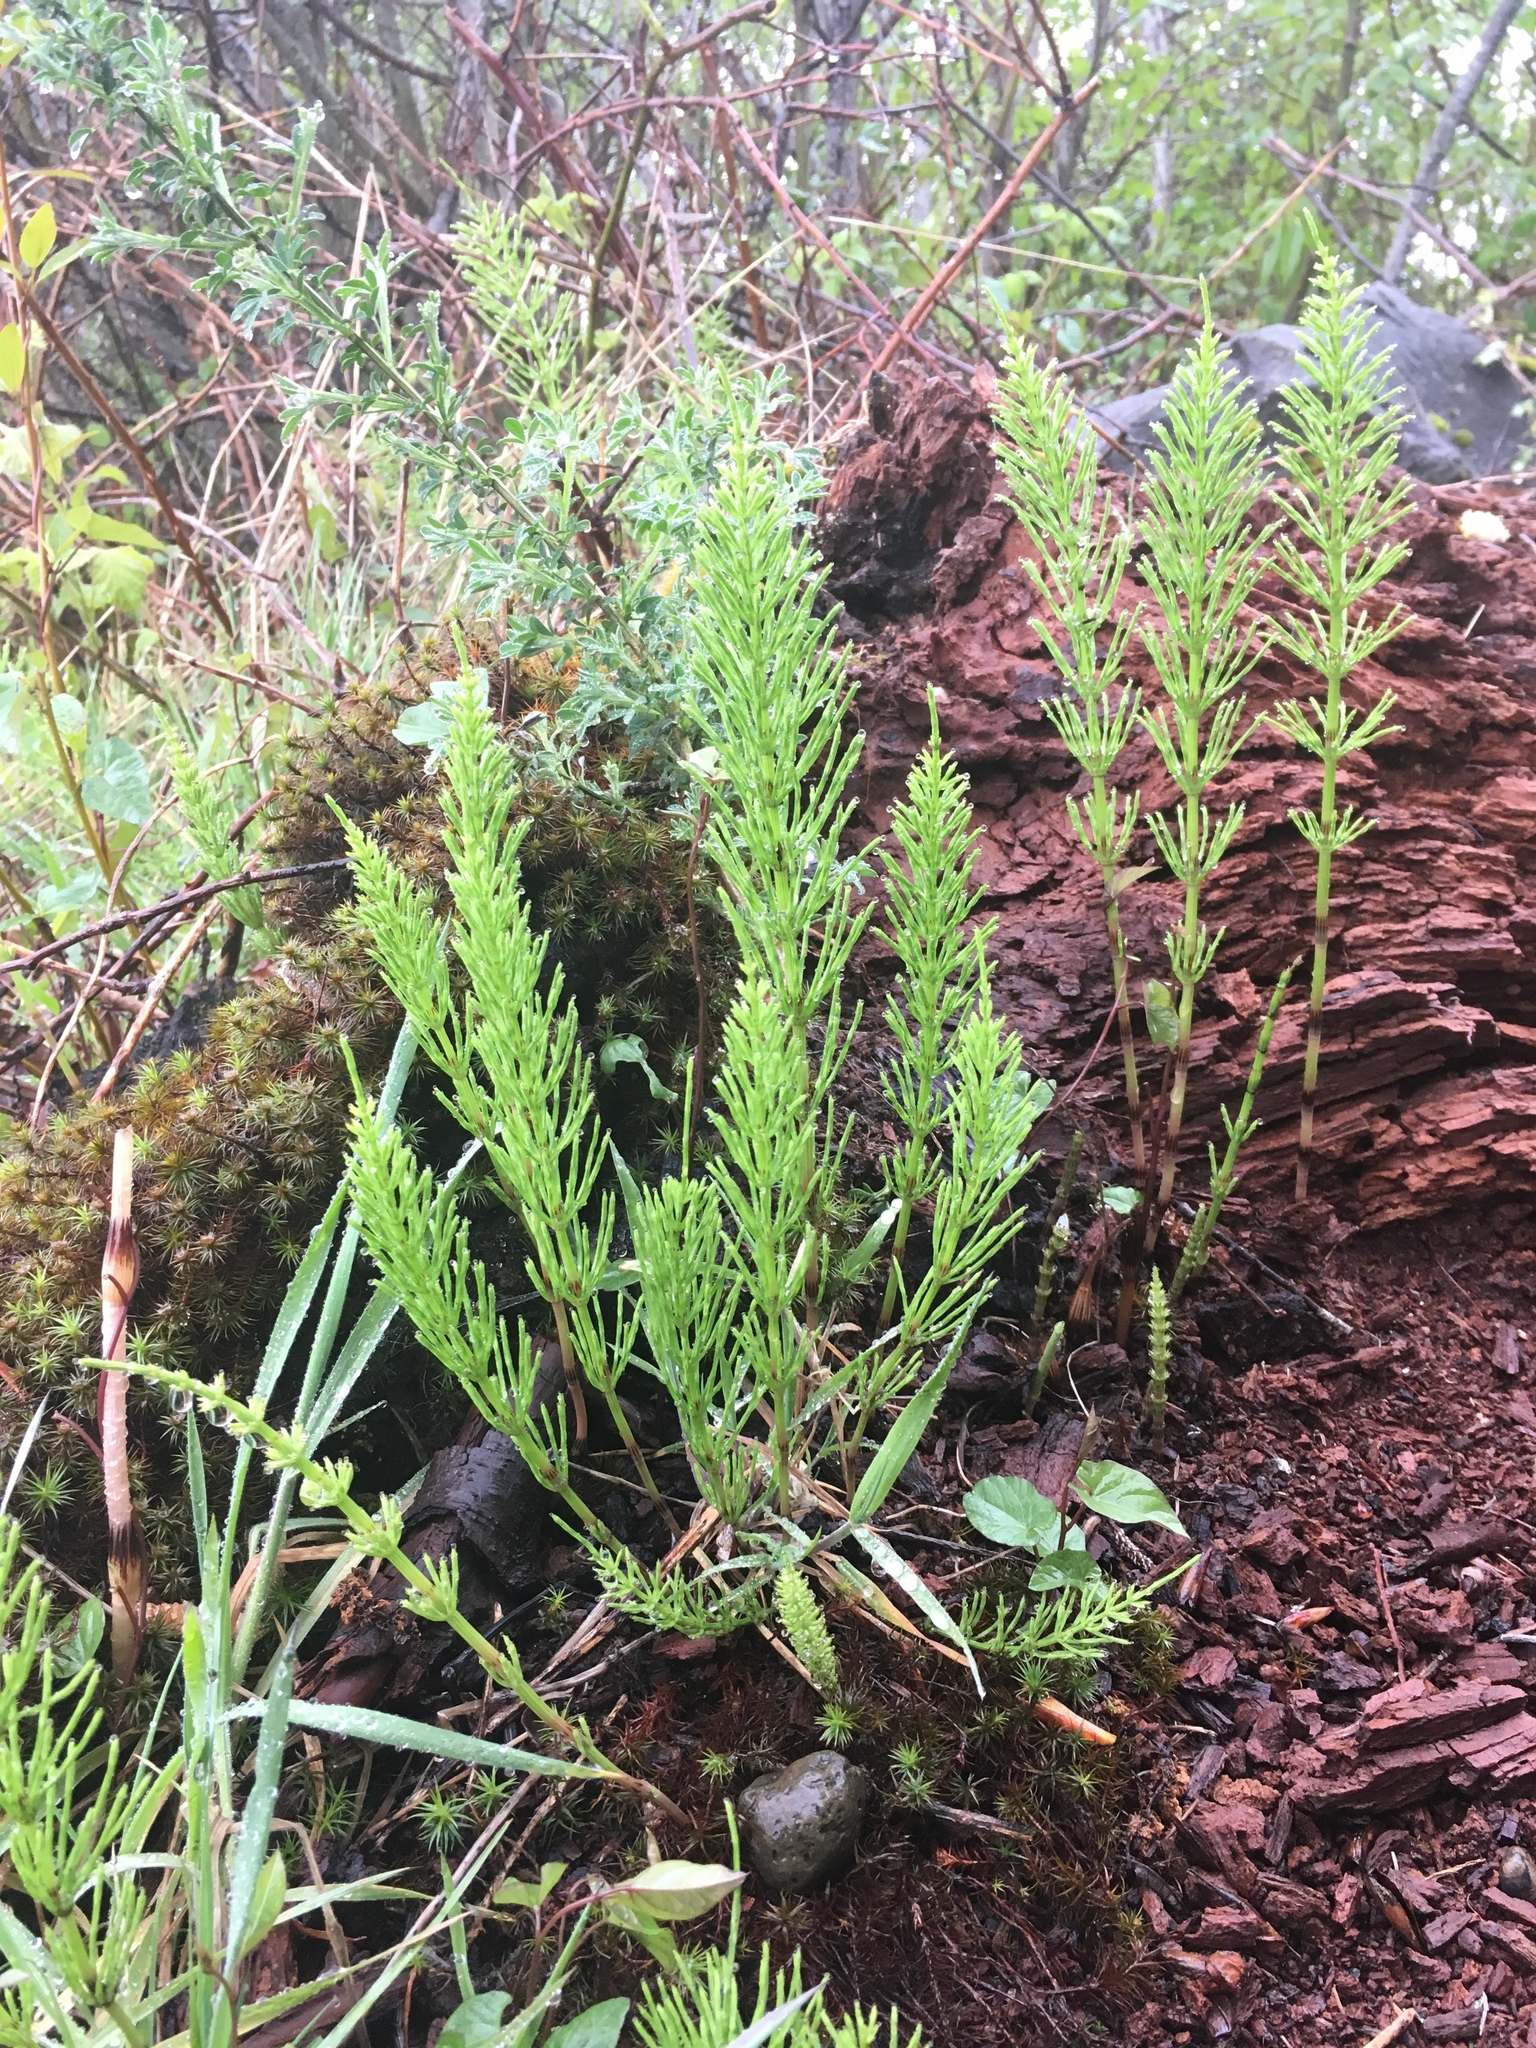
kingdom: Plantae
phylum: Tracheophyta
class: Polypodiopsida
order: Equisetales
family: Equisetaceae
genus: Equisetum
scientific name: Equisetum arvense
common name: Field horsetail
